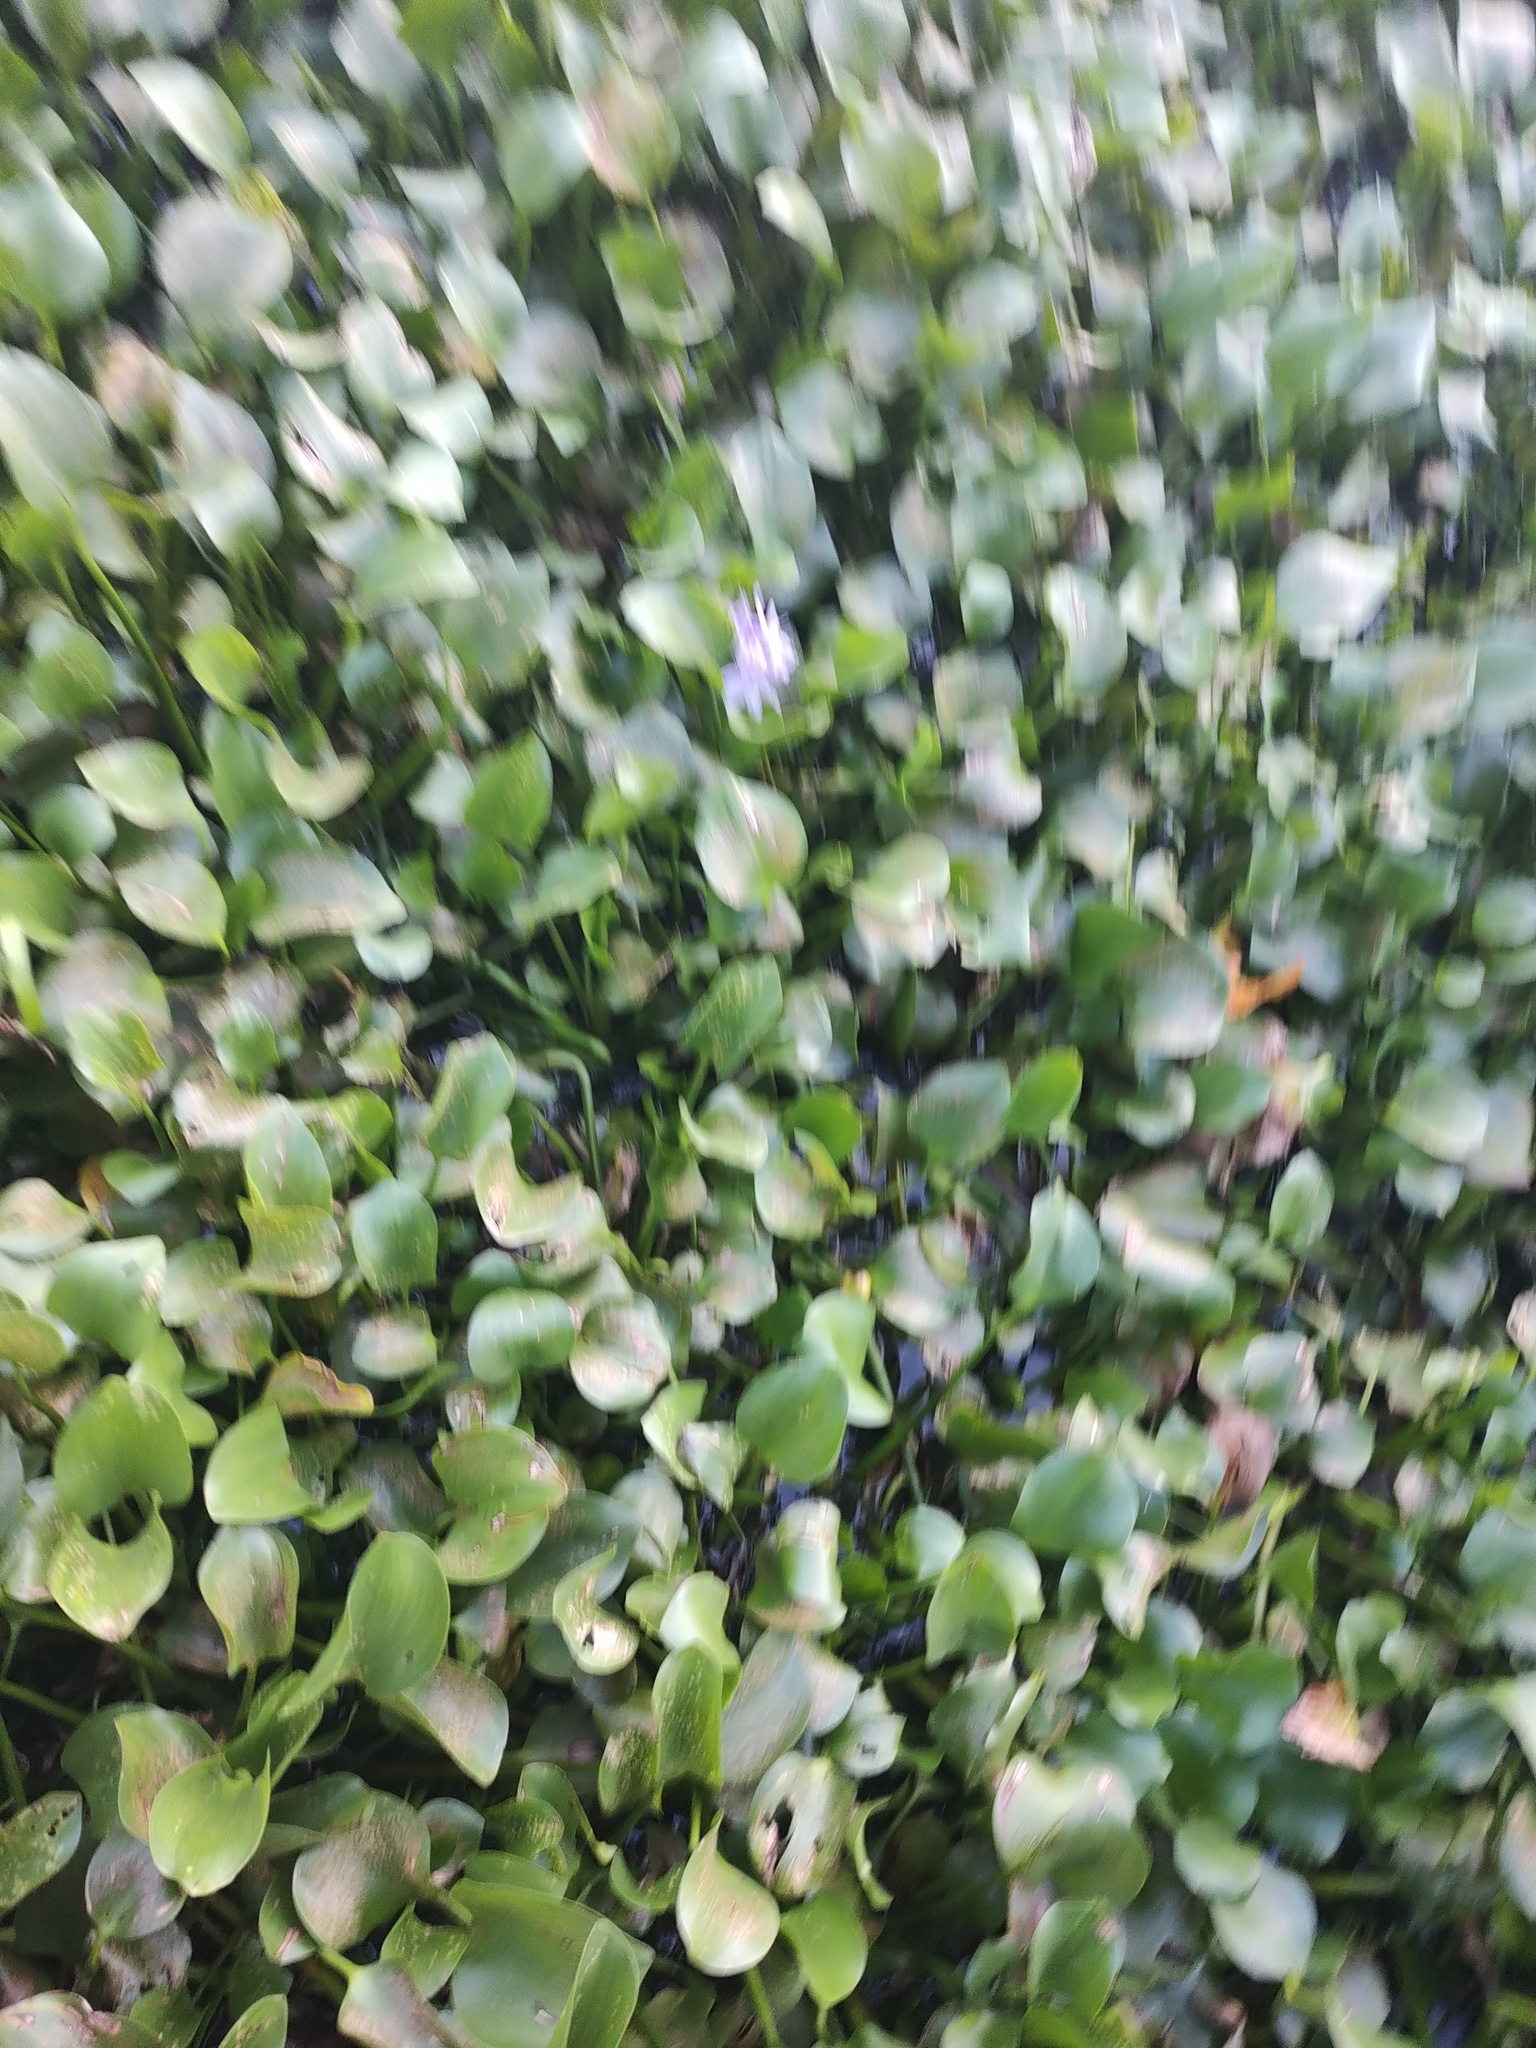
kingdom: Plantae
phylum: Tracheophyta
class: Liliopsida
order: Commelinales
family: Pontederiaceae
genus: Pontederia
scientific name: Pontederia crassipes
